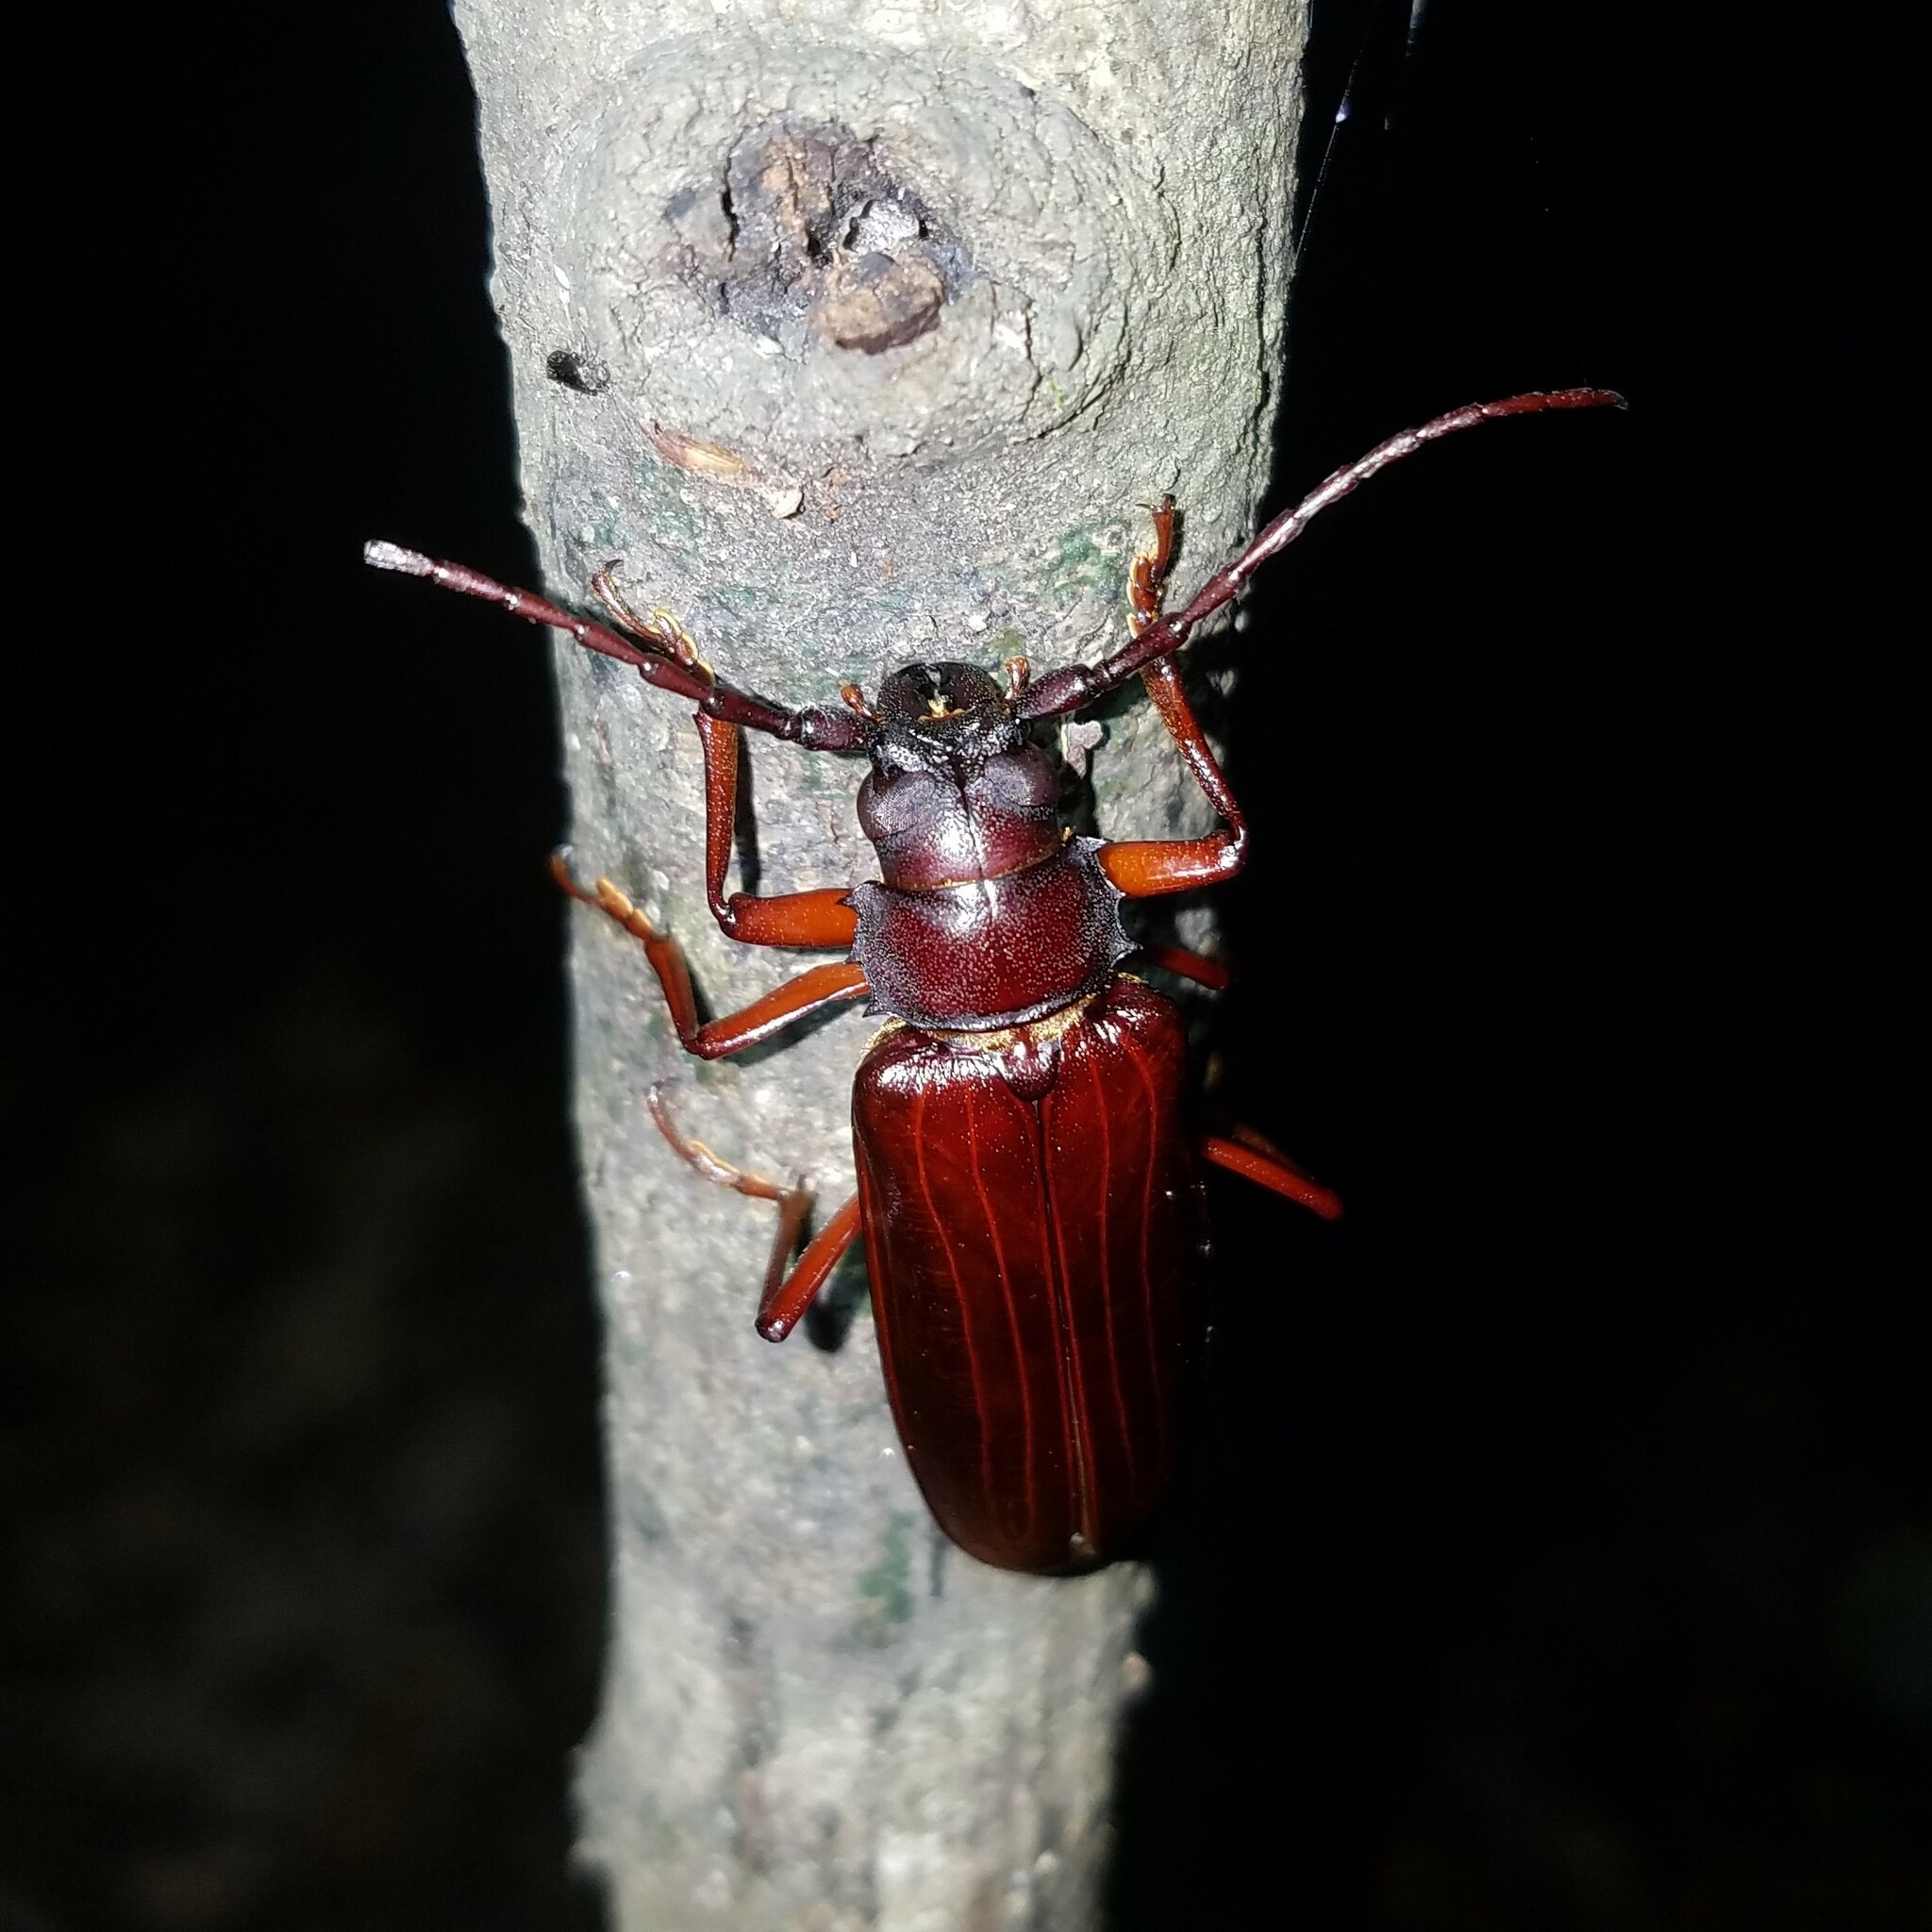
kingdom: Animalia
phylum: Arthropoda
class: Insecta
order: Coleoptera
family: Cerambycidae
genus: Orthosoma
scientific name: Orthosoma brunneum
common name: Brown prionid beetle
